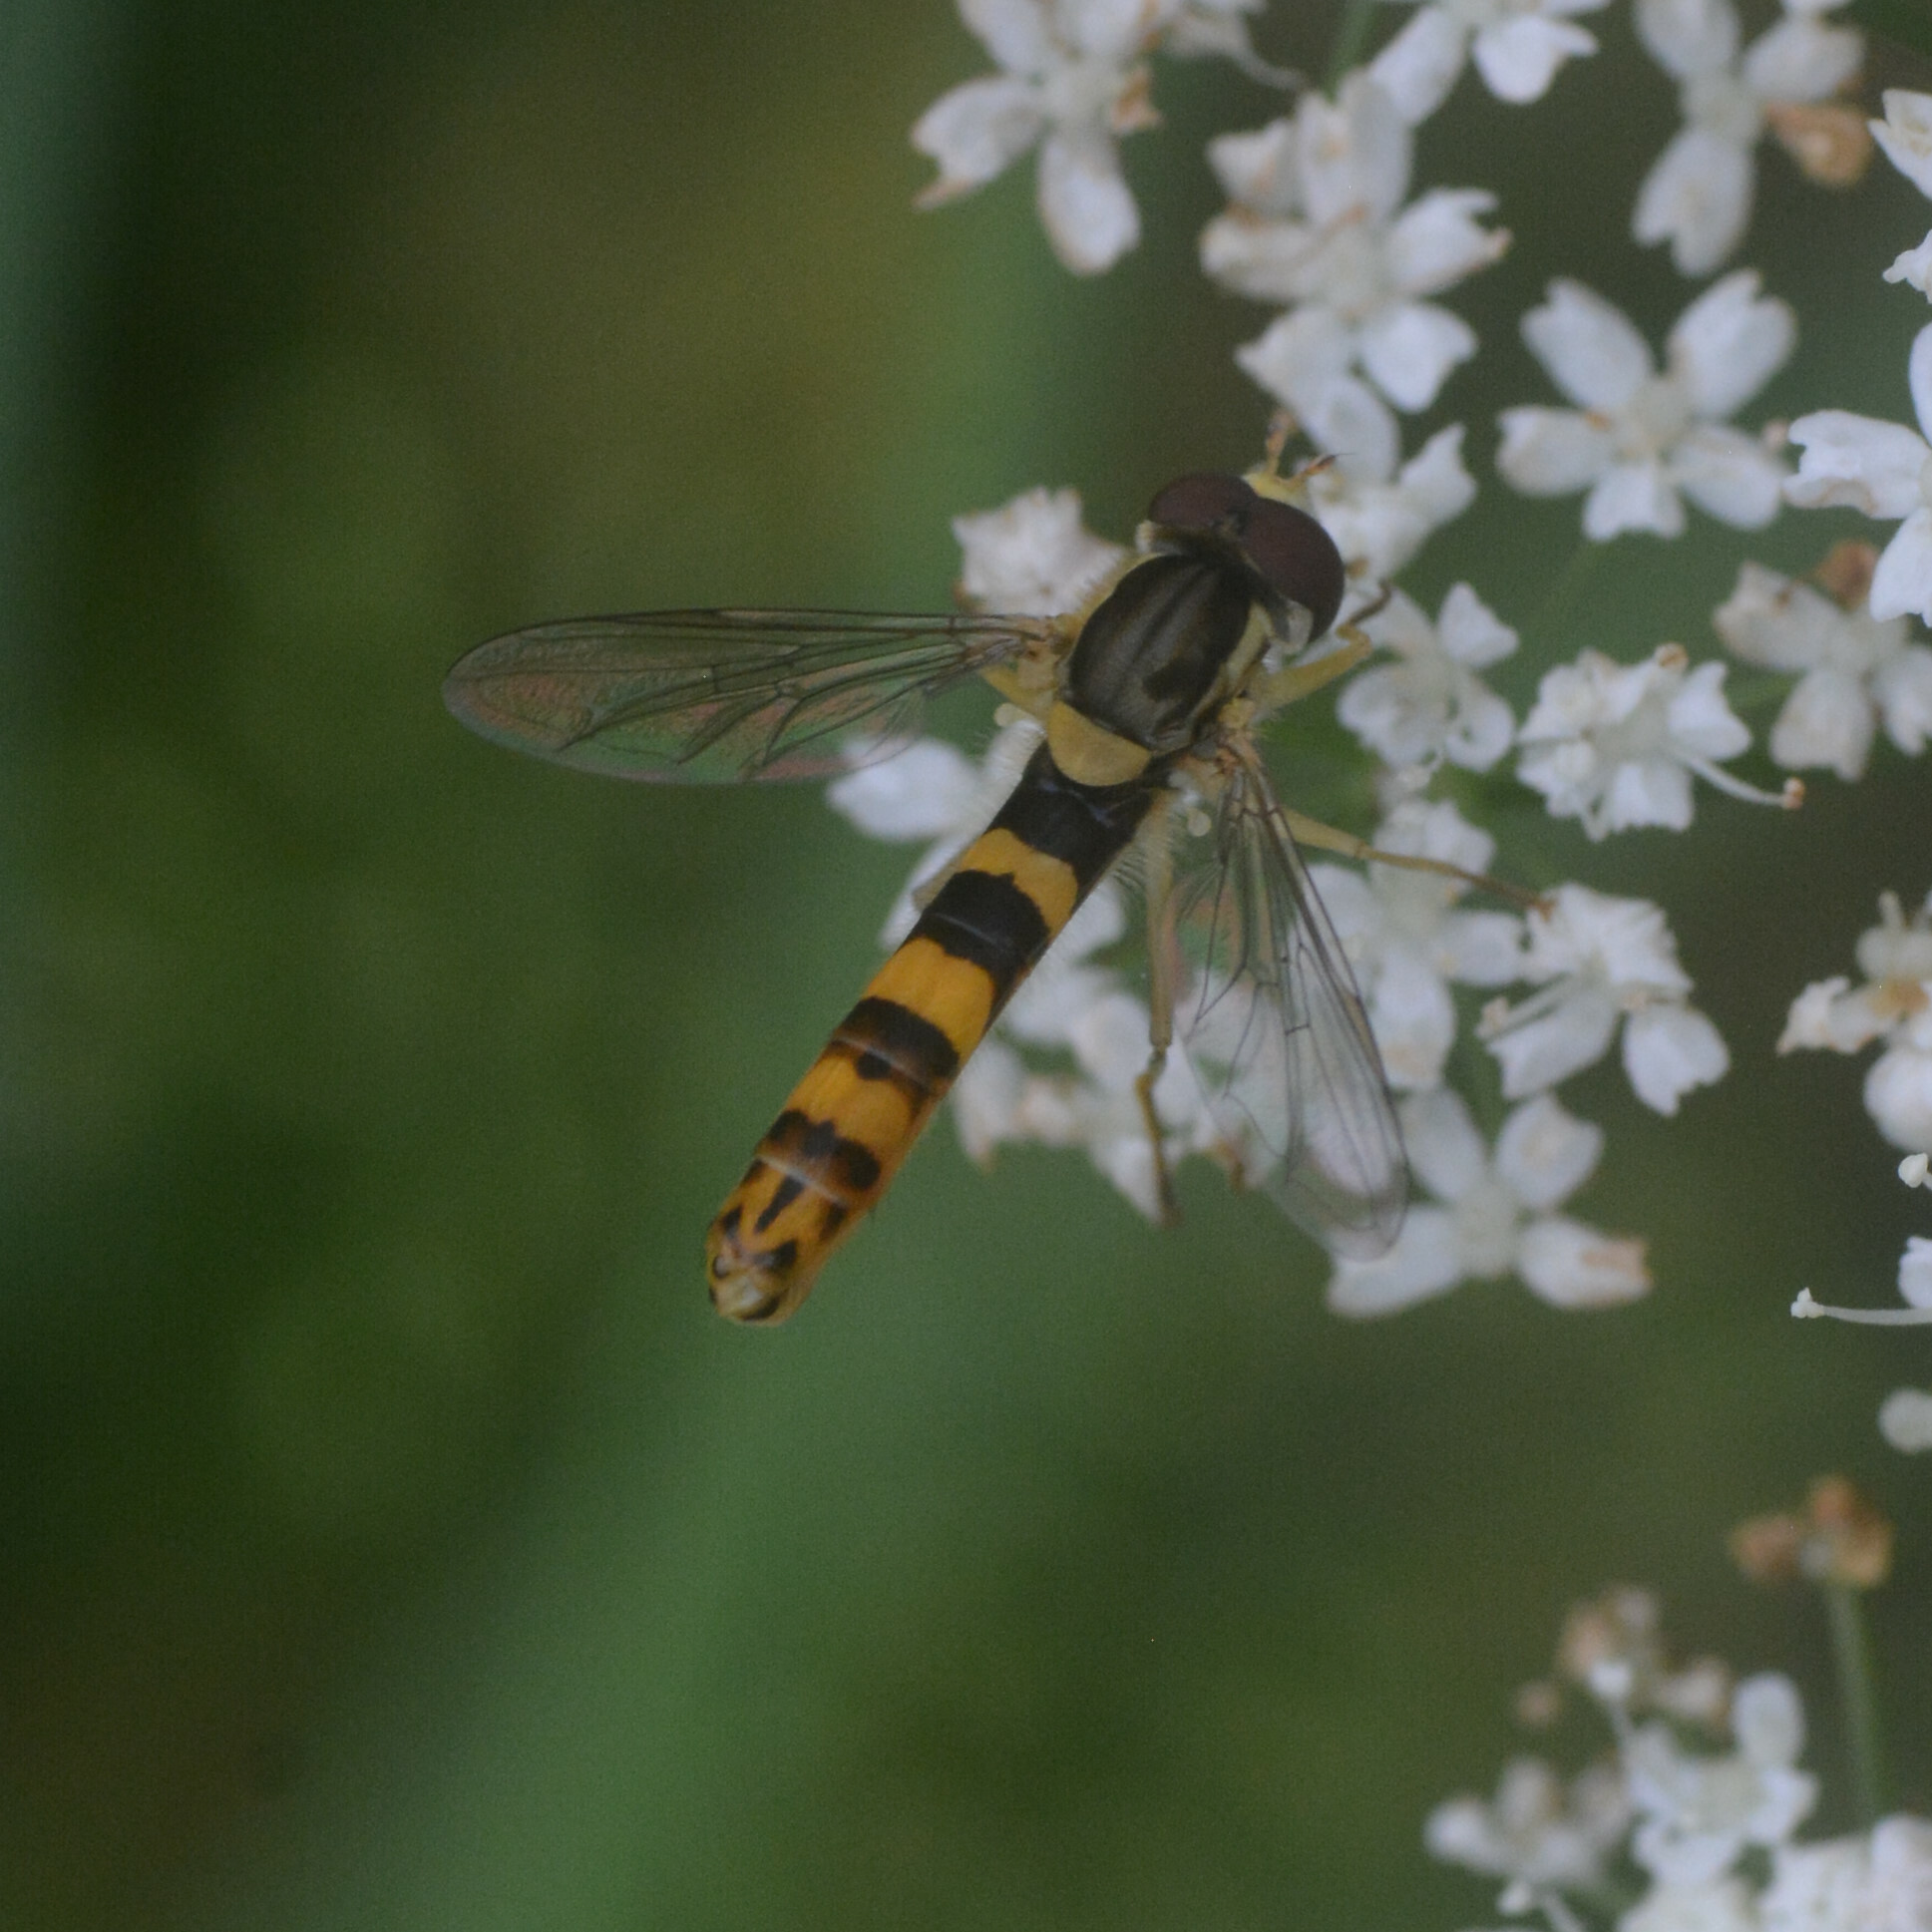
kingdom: Animalia
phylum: Arthropoda
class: Insecta
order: Diptera
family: Syrphidae
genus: Sphaerophoria
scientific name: Sphaerophoria scripta
